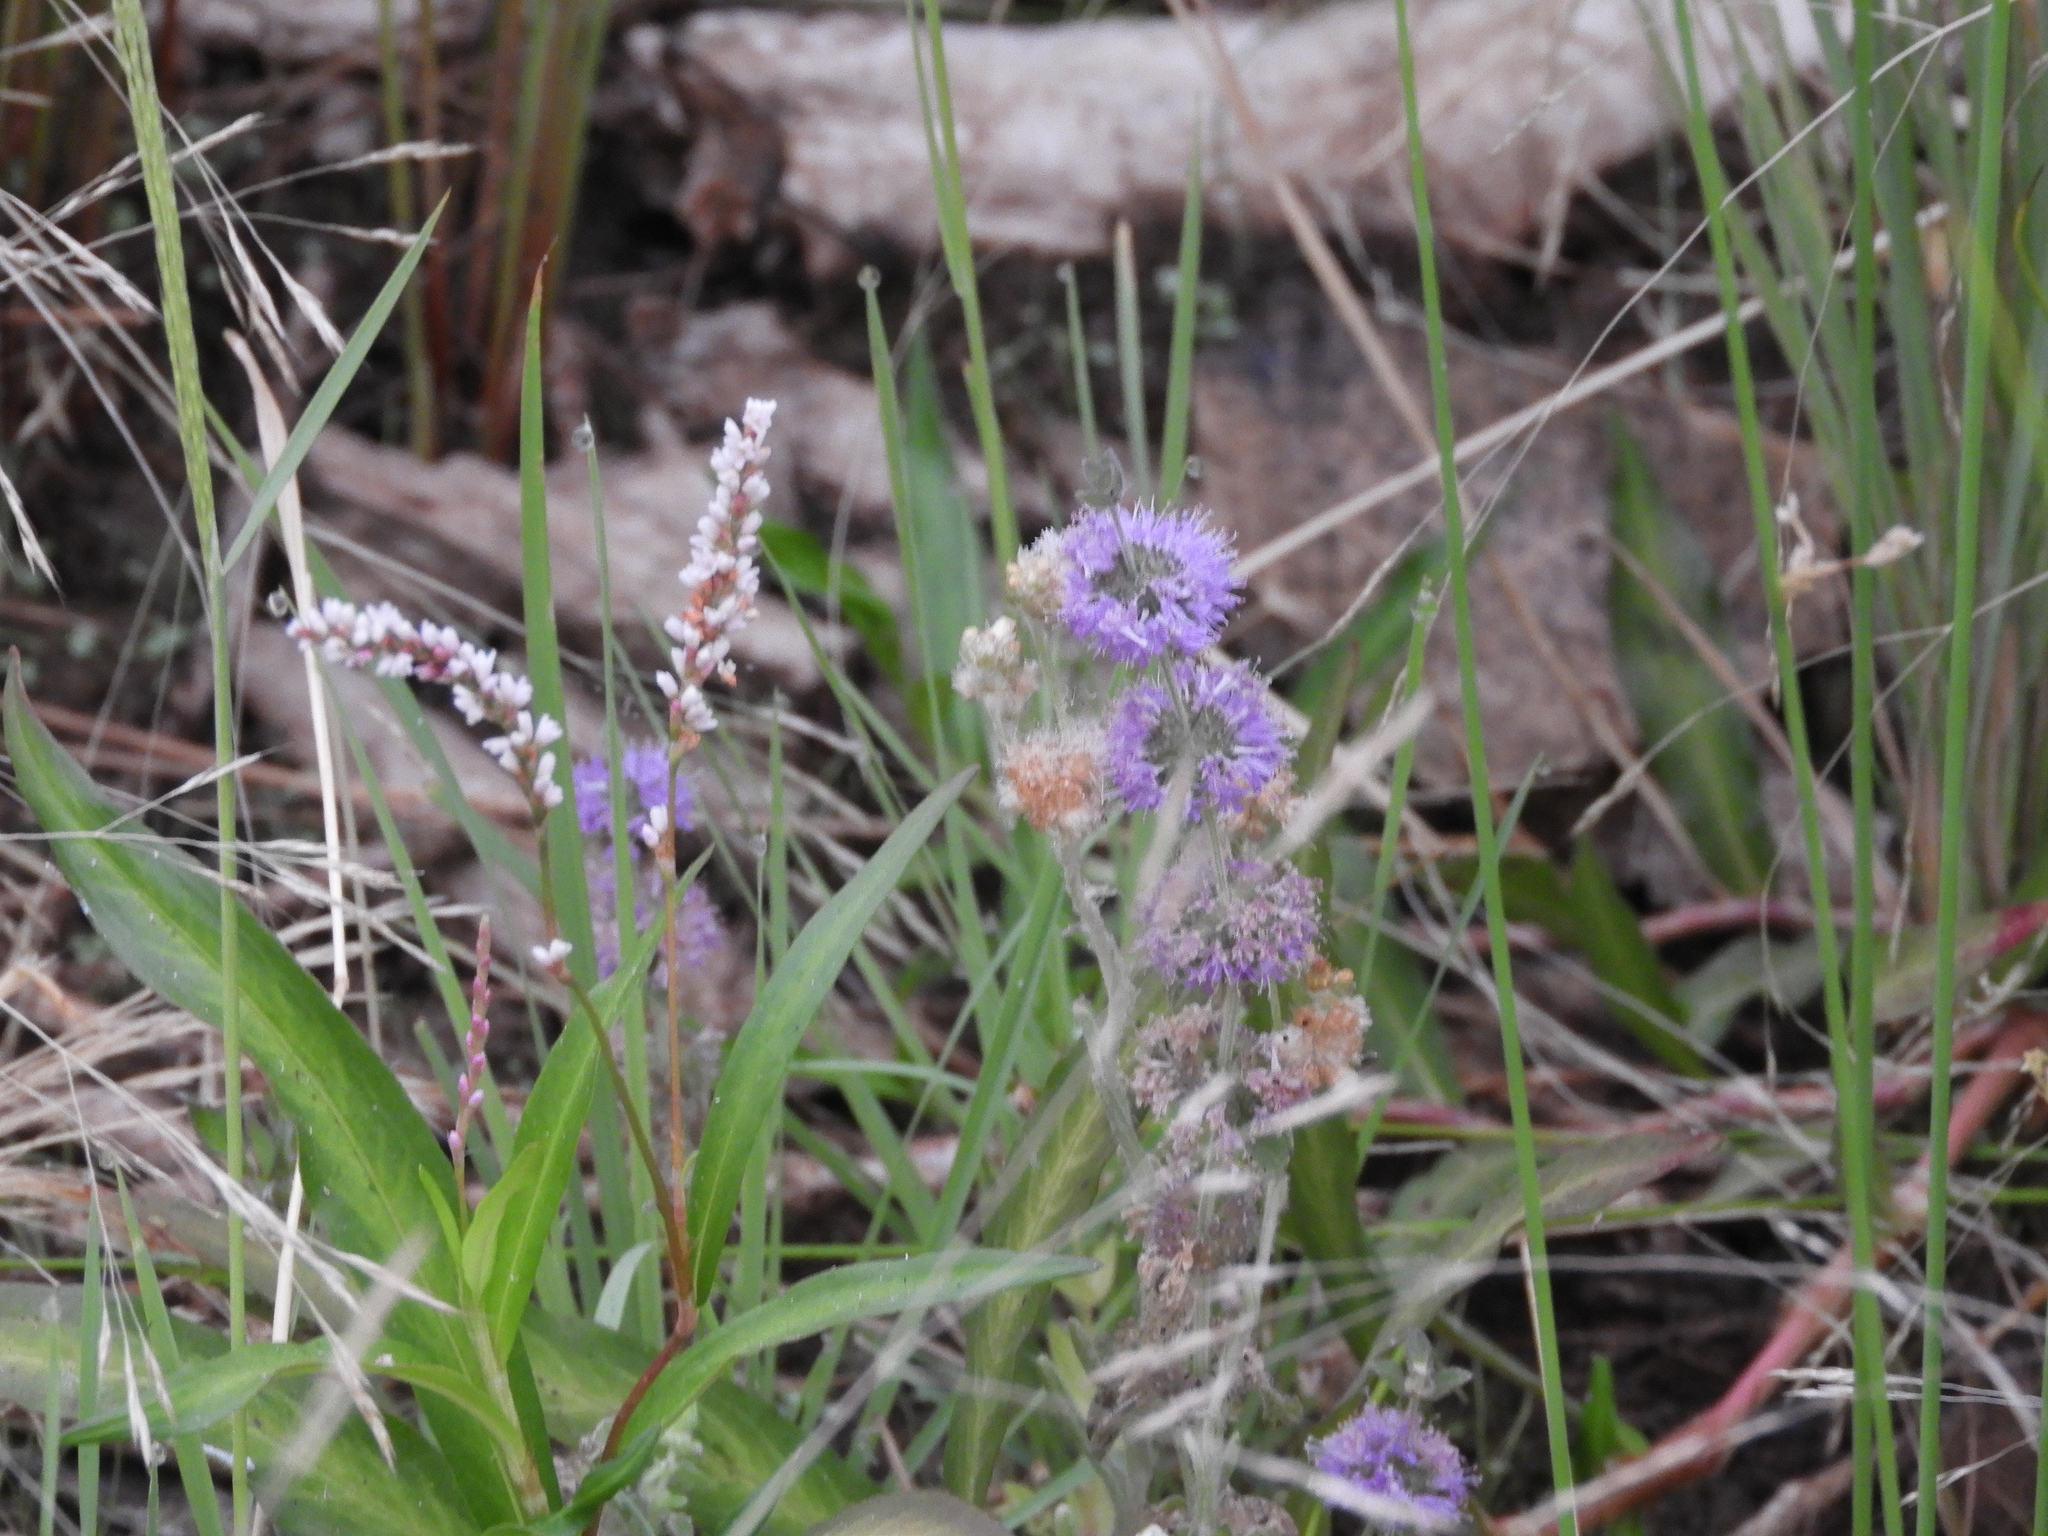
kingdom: Plantae
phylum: Tracheophyta
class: Magnoliopsida
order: Lamiales
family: Lamiaceae
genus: Mentha
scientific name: Mentha pulegium
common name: Pennyroyal
